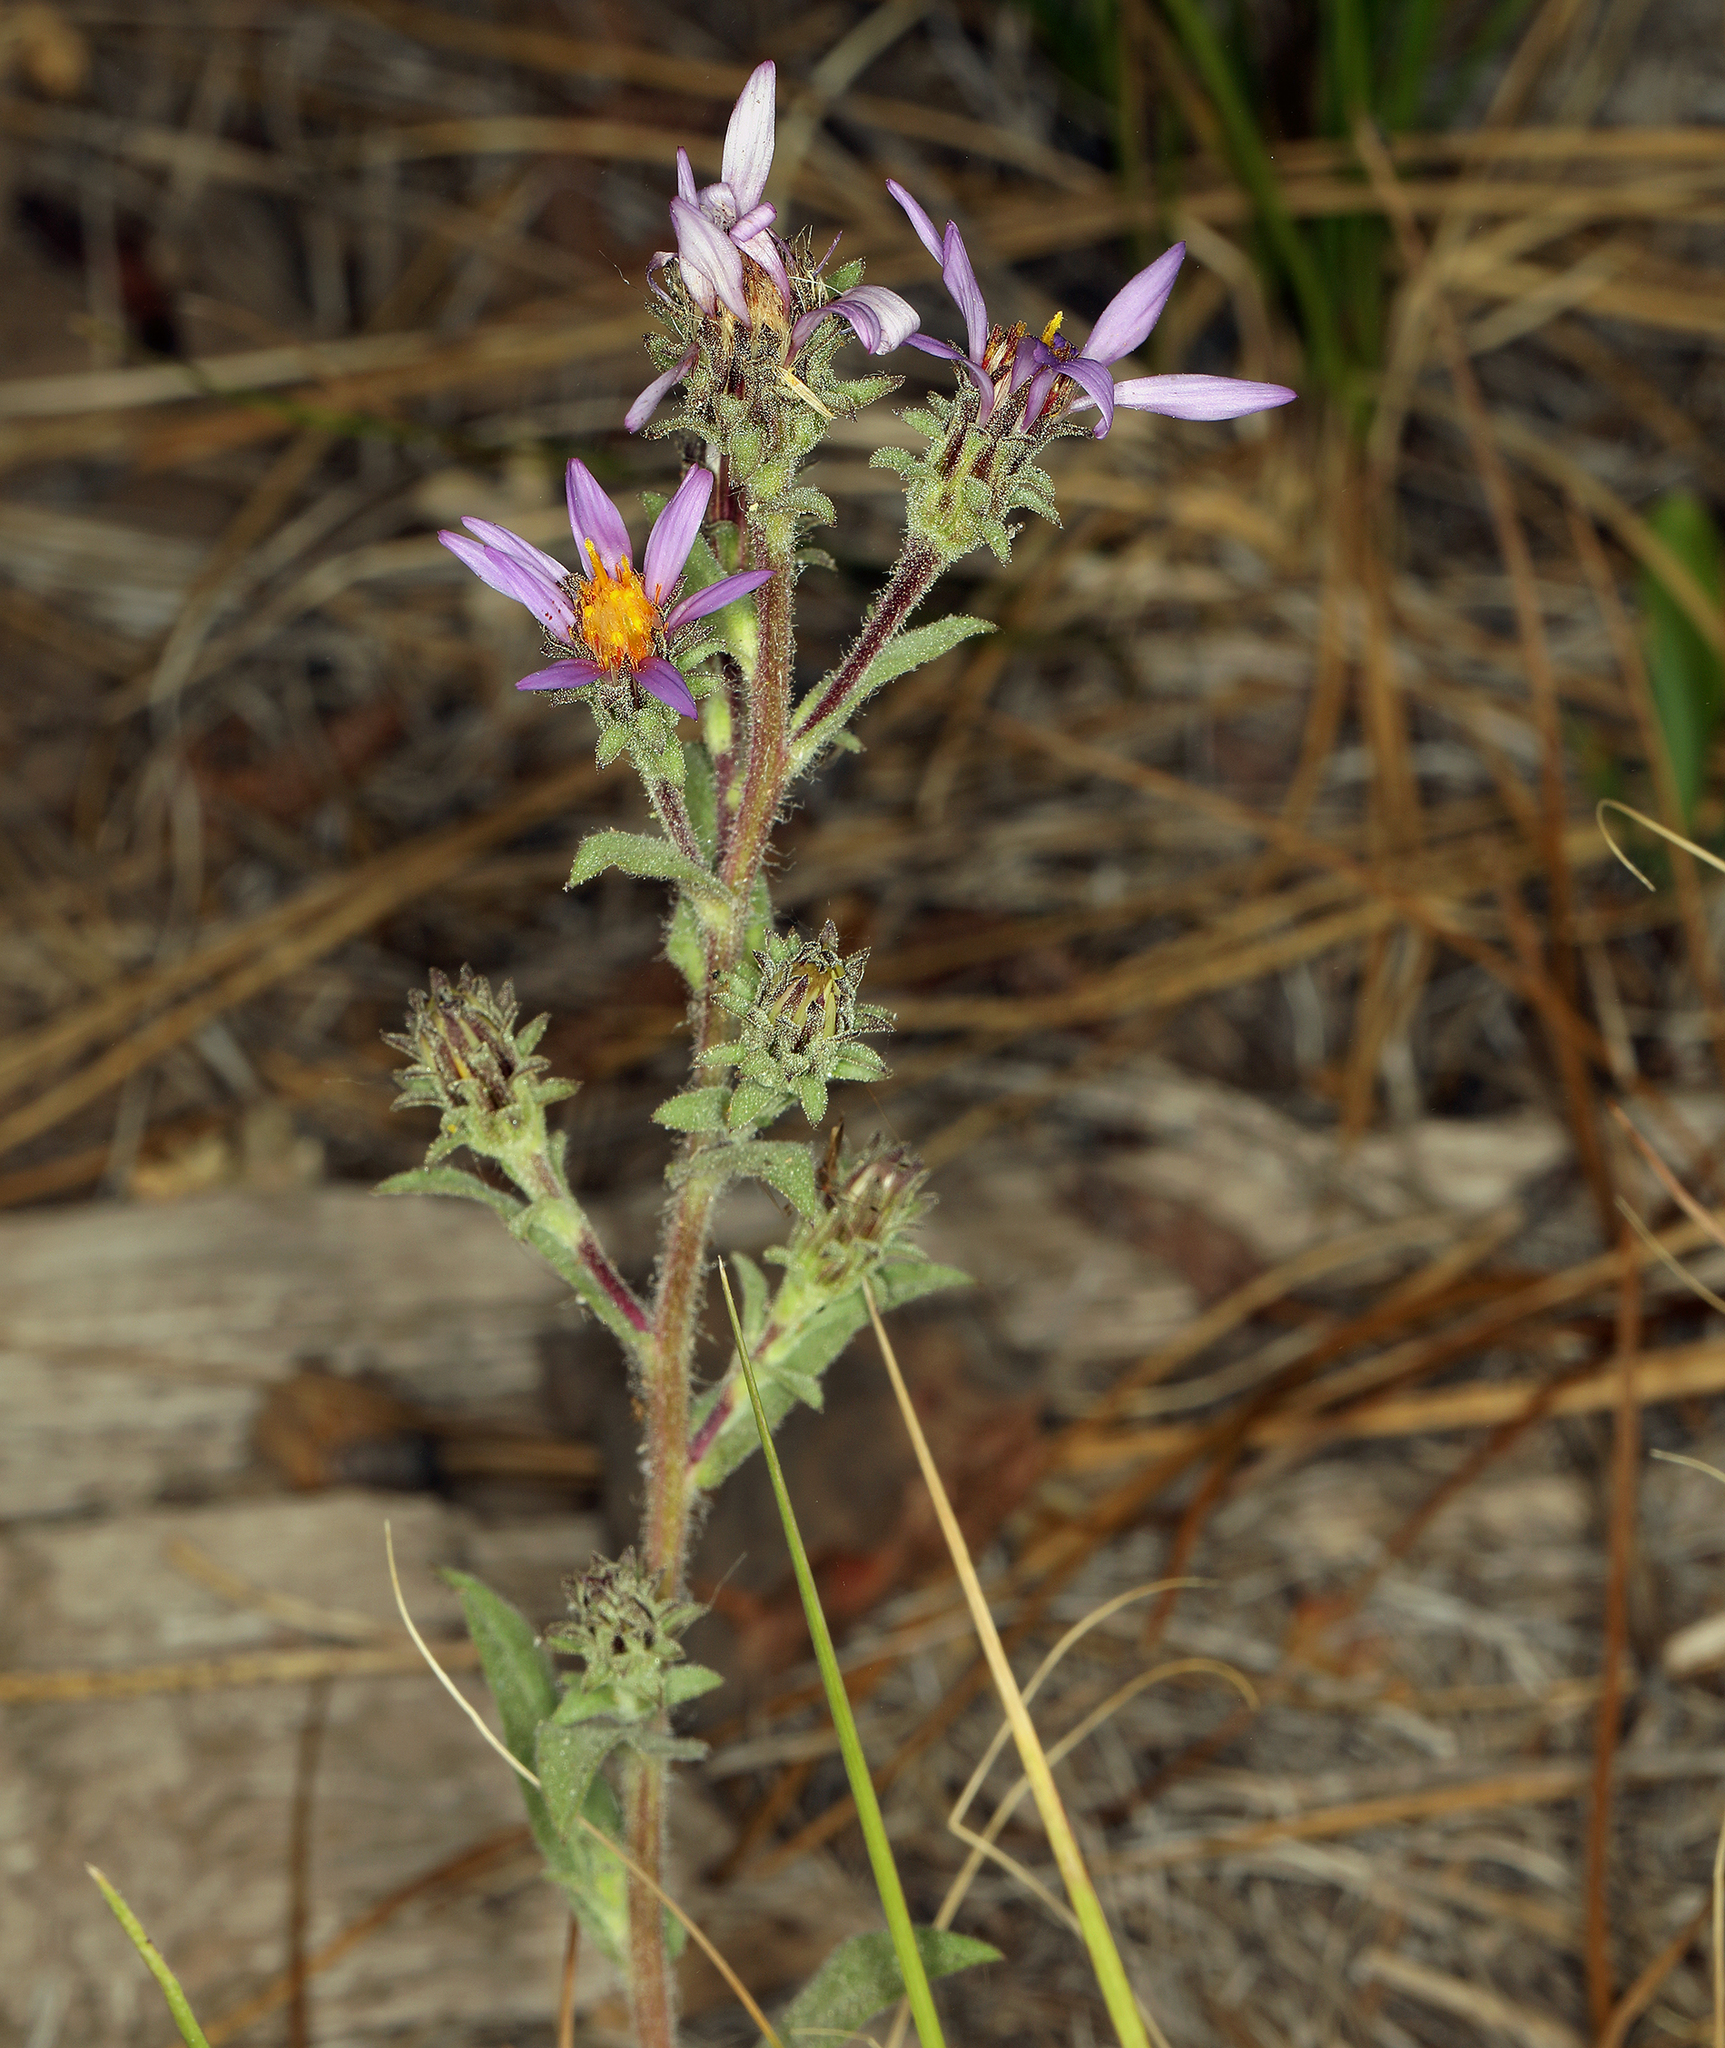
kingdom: Plantae
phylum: Tracheophyta
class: Magnoliopsida
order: Asterales
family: Asteraceae
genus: Eurybia
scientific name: Eurybia integrifolia
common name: Thick-stem aster
